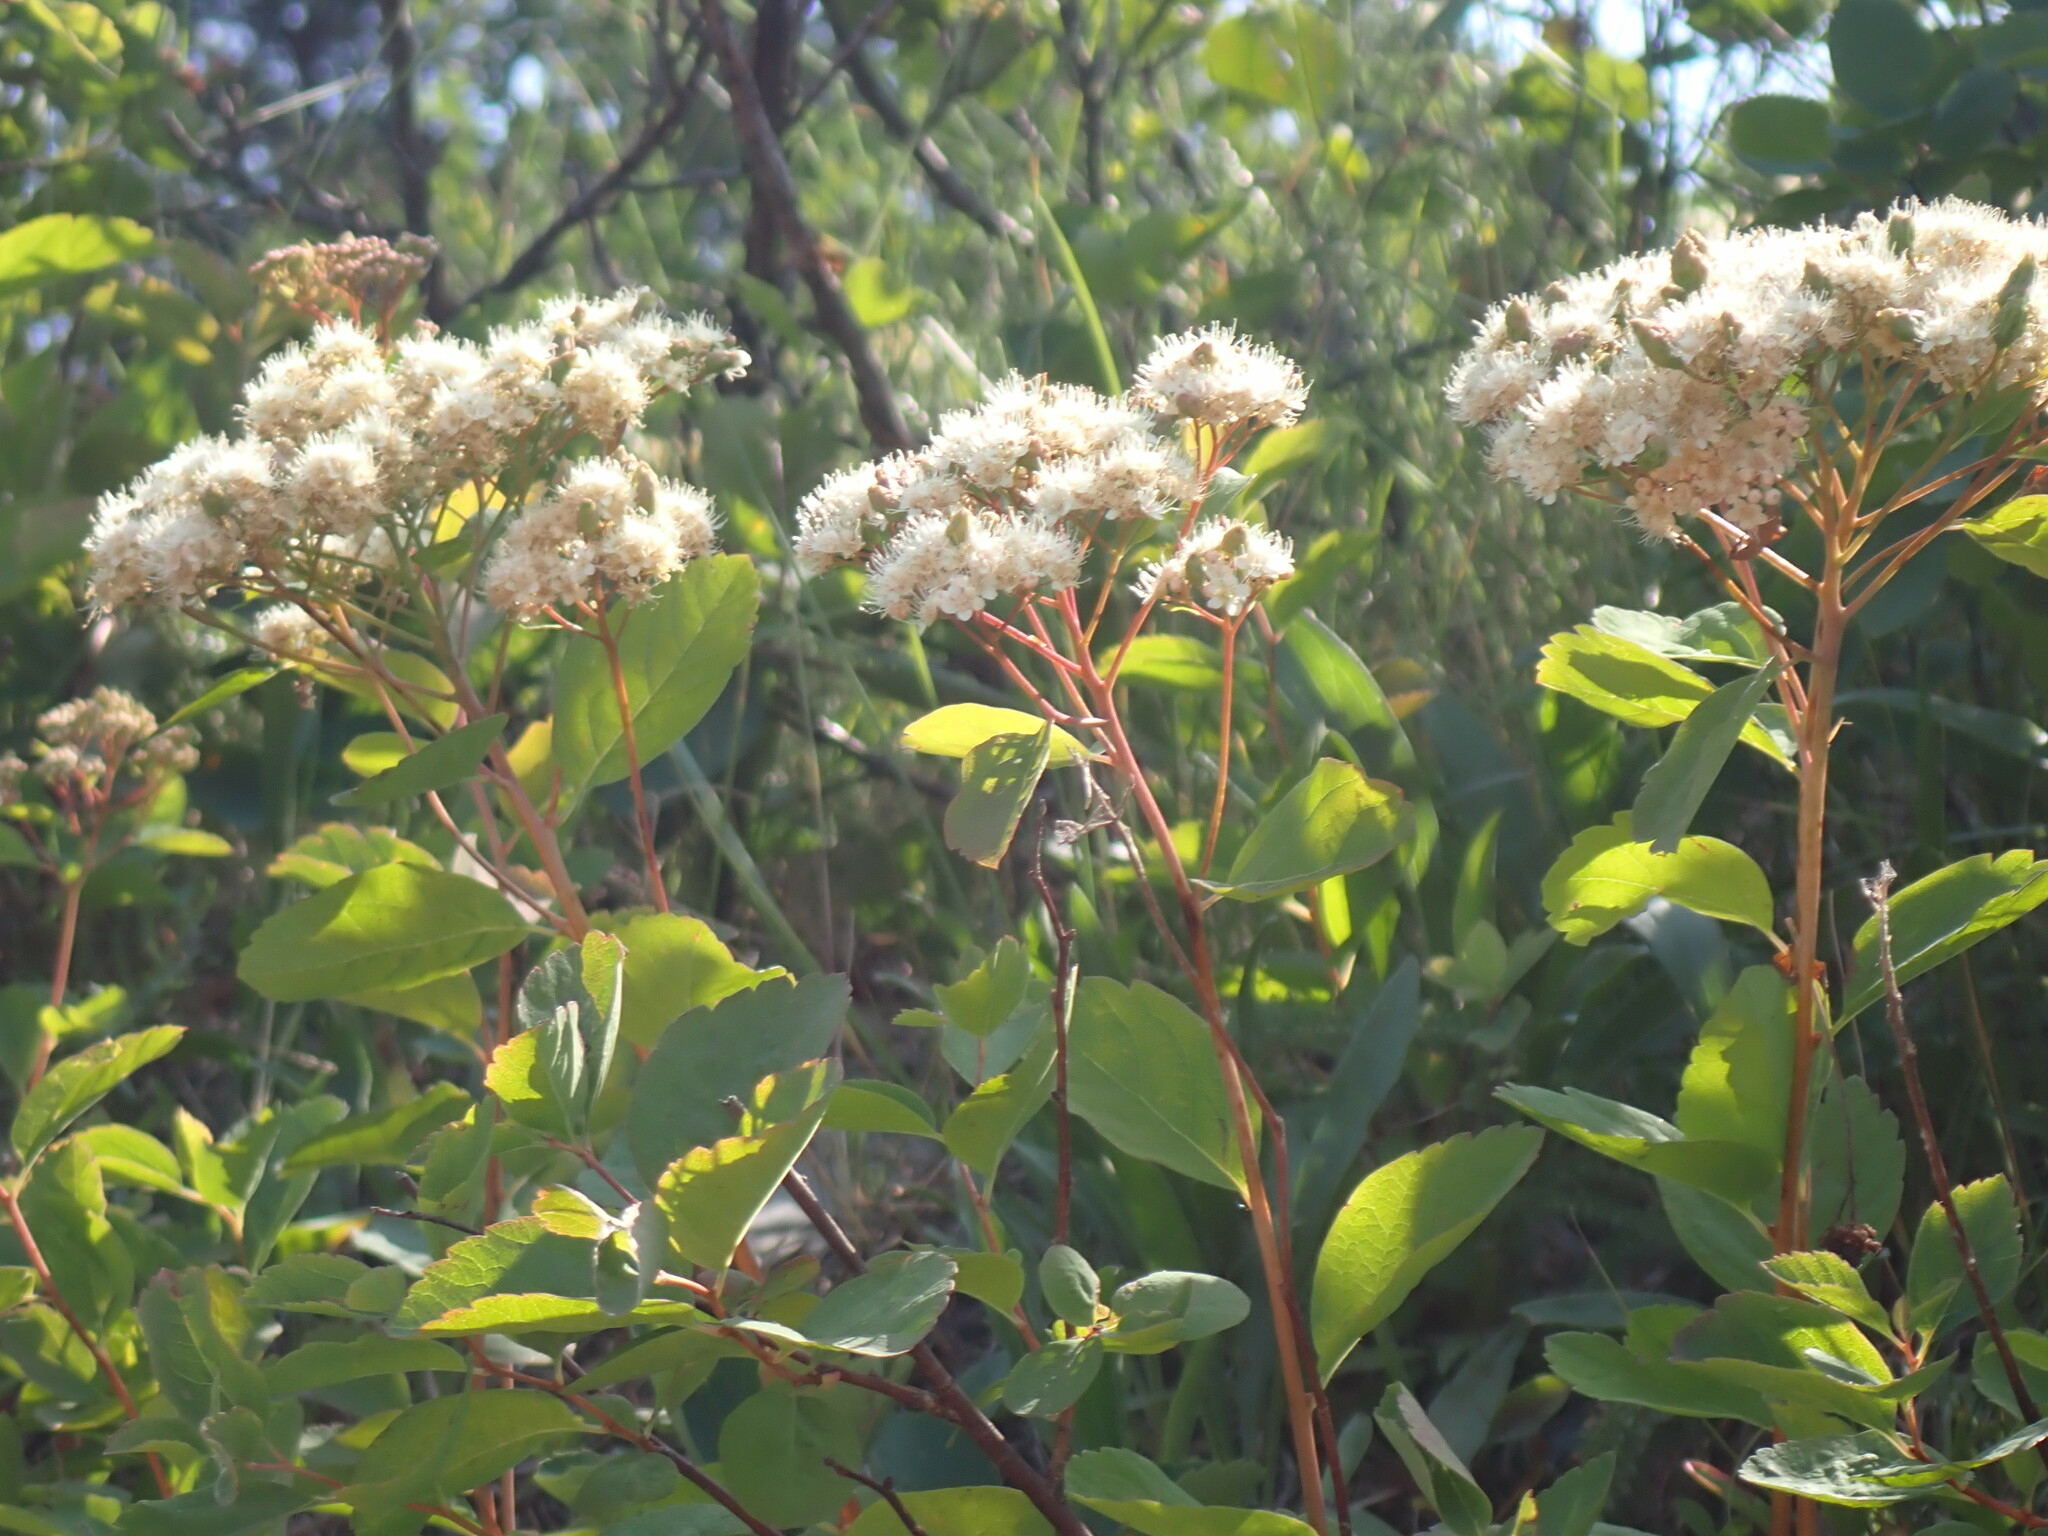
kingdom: Plantae
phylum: Tracheophyta
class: Magnoliopsida
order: Rosales
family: Rosaceae
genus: Spiraea
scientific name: Spiraea lucida
